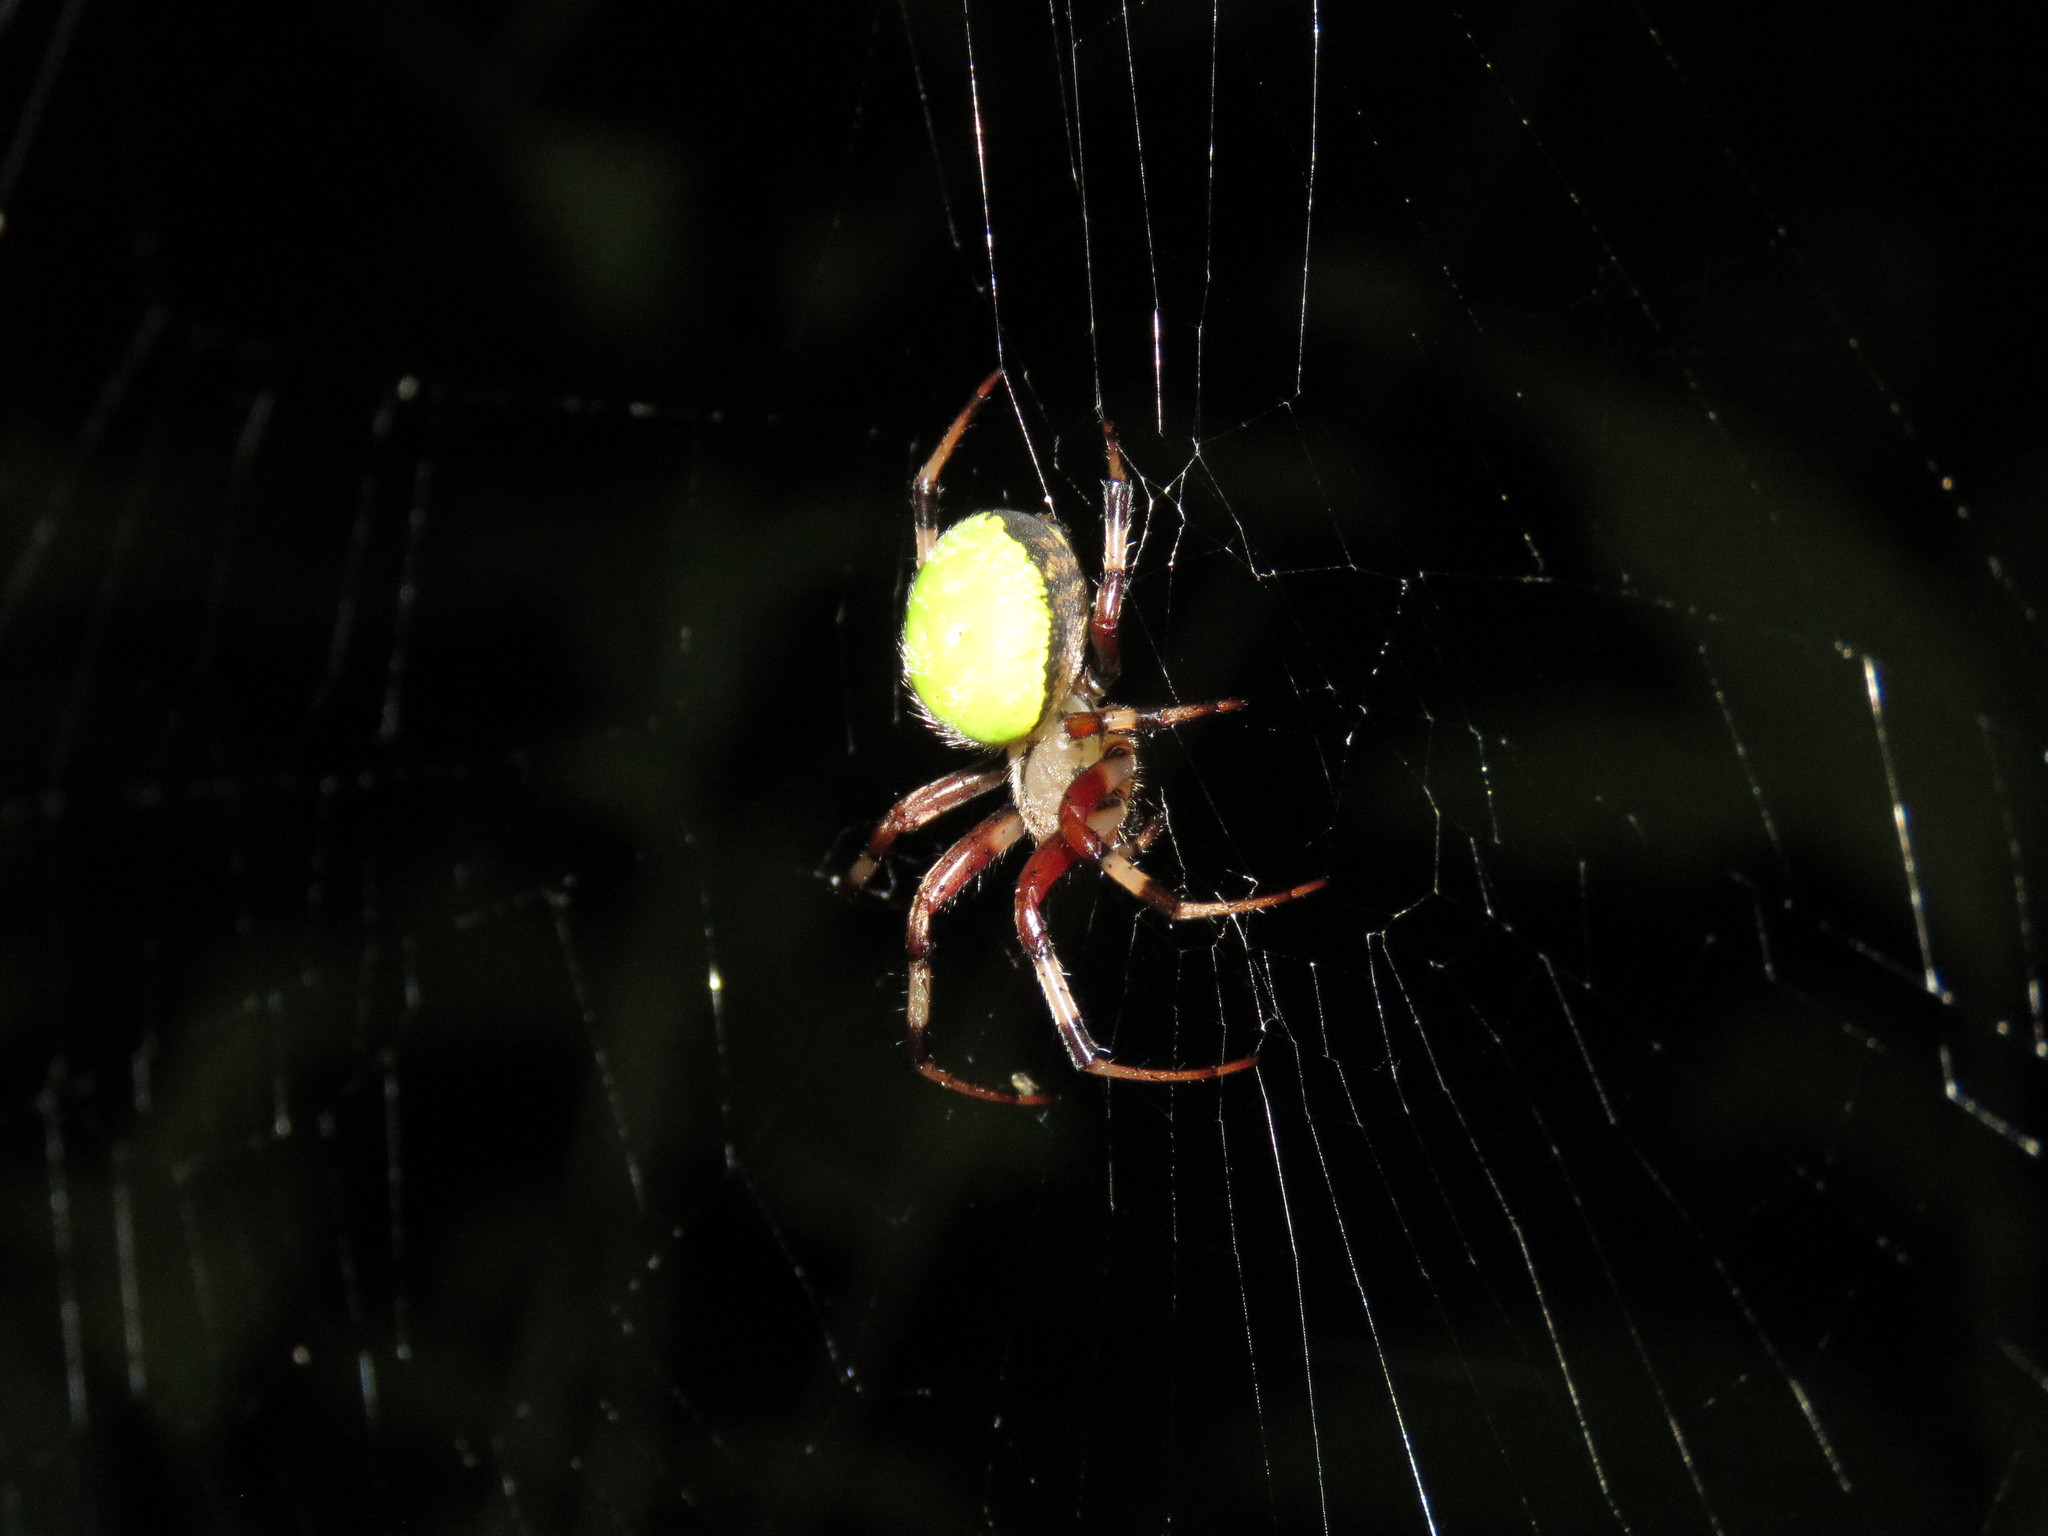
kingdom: Animalia
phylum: Arthropoda
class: Arachnida
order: Araneae
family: Araneidae
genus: Dubiepeira
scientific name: Dubiepeira dubitata
